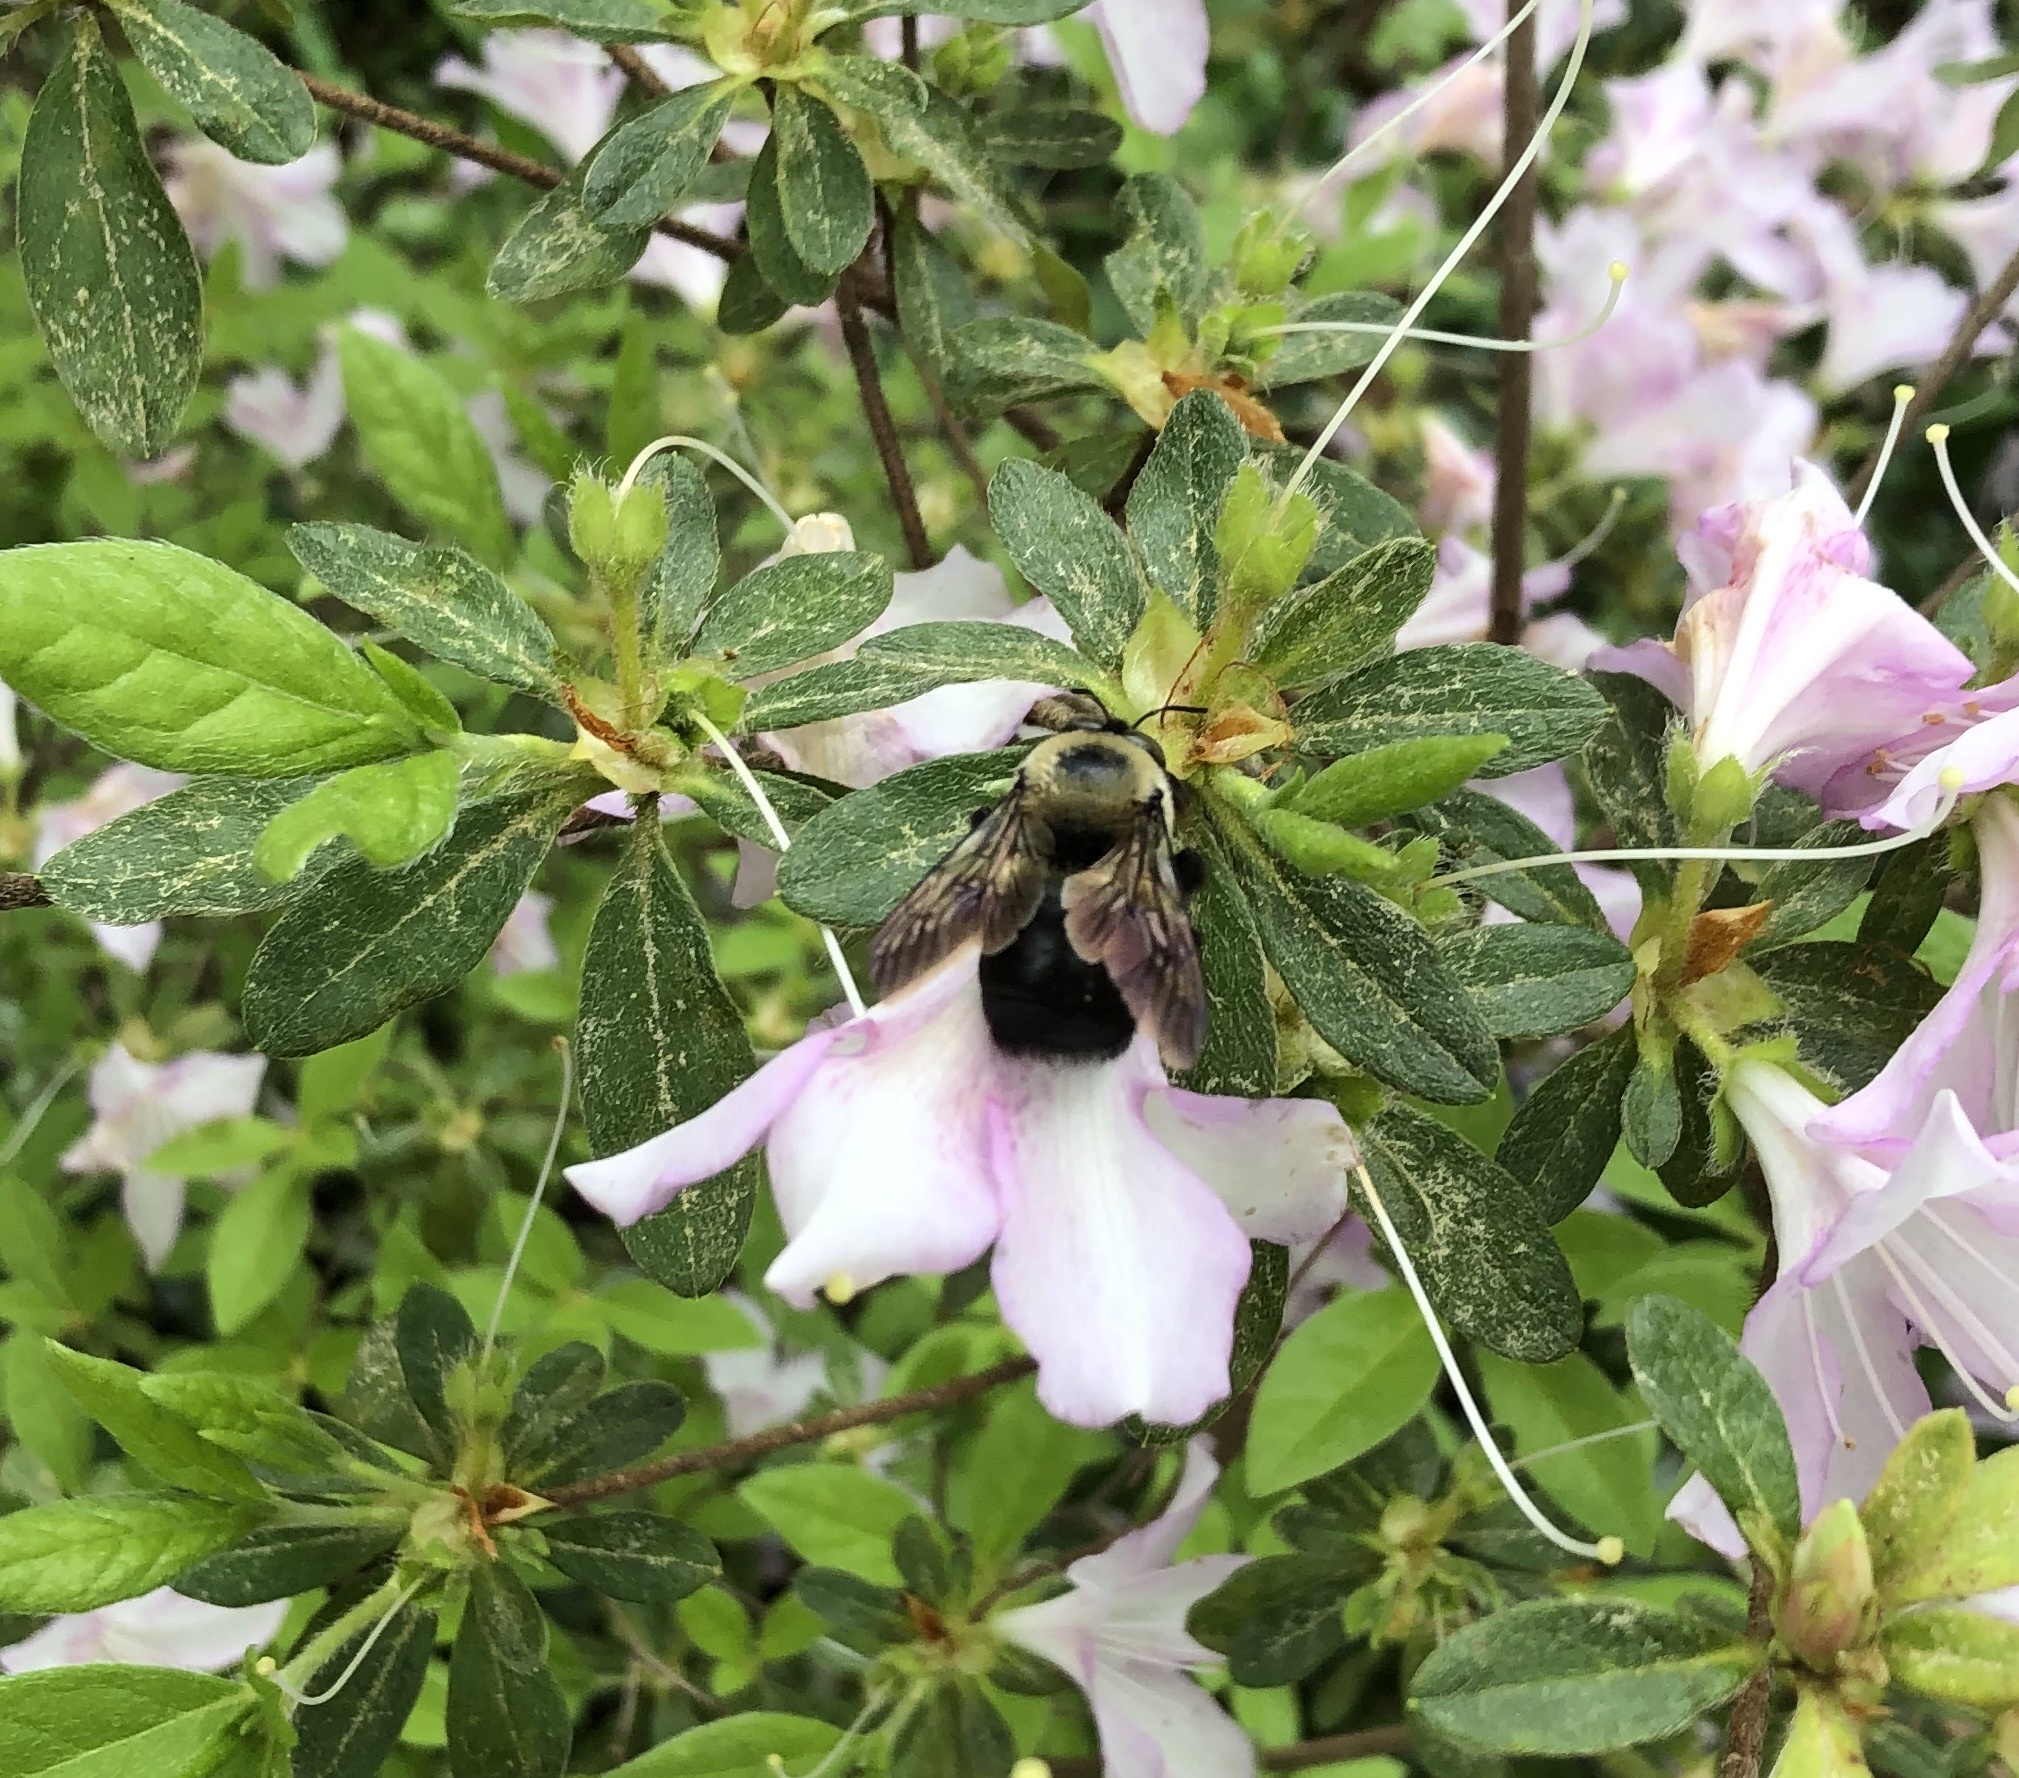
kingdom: Animalia
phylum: Arthropoda
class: Insecta
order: Hymenoptera
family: Apidae
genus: Xylocopa
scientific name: Xylocopa virginica
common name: Carpenter bee
